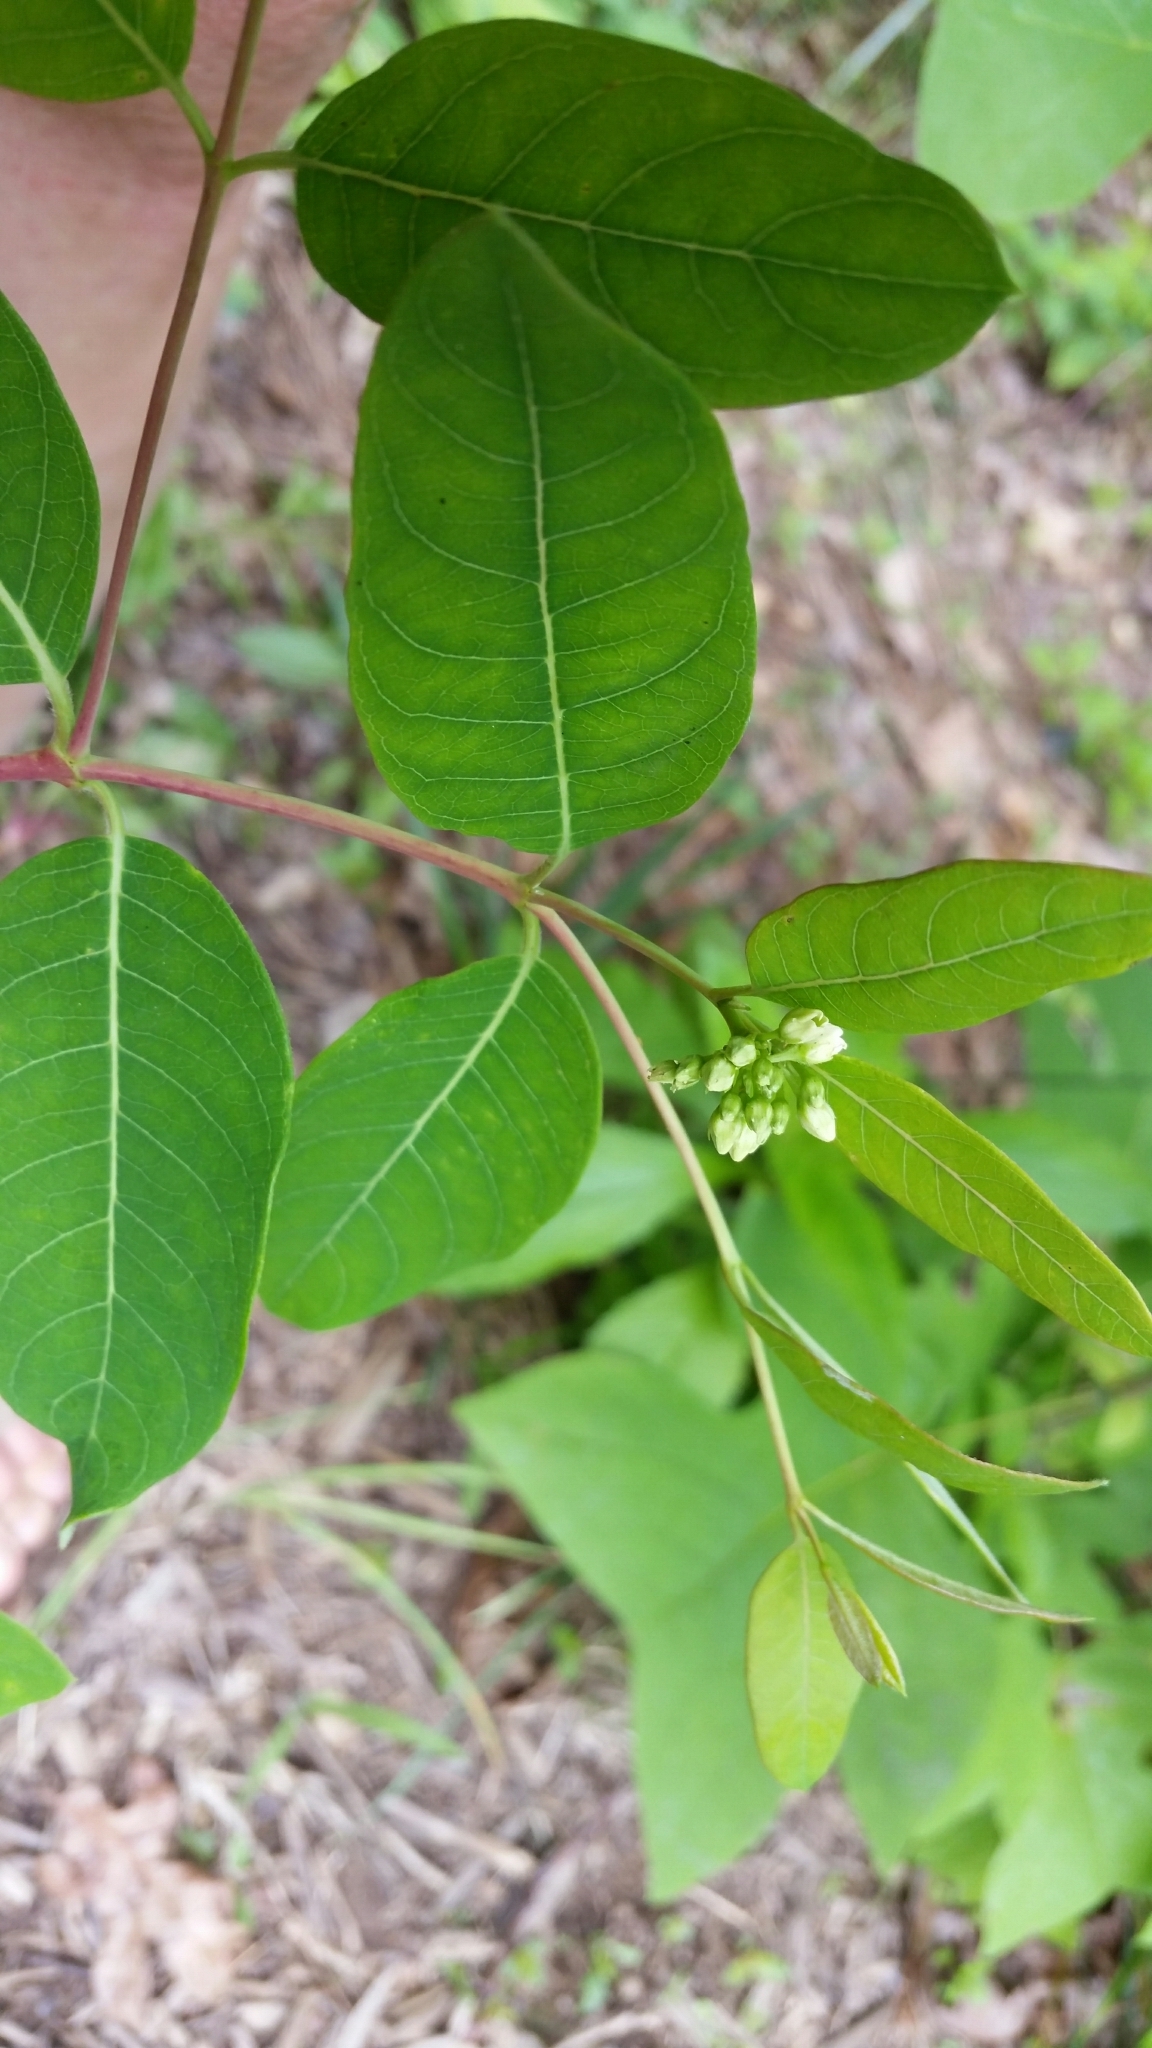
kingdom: Plantae
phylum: Tracheophyta
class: Magnoliopsida
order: Gentianales
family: Apocynaceae
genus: Apocynum
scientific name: Apocynum cannabinum
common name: Hemp dogbane
